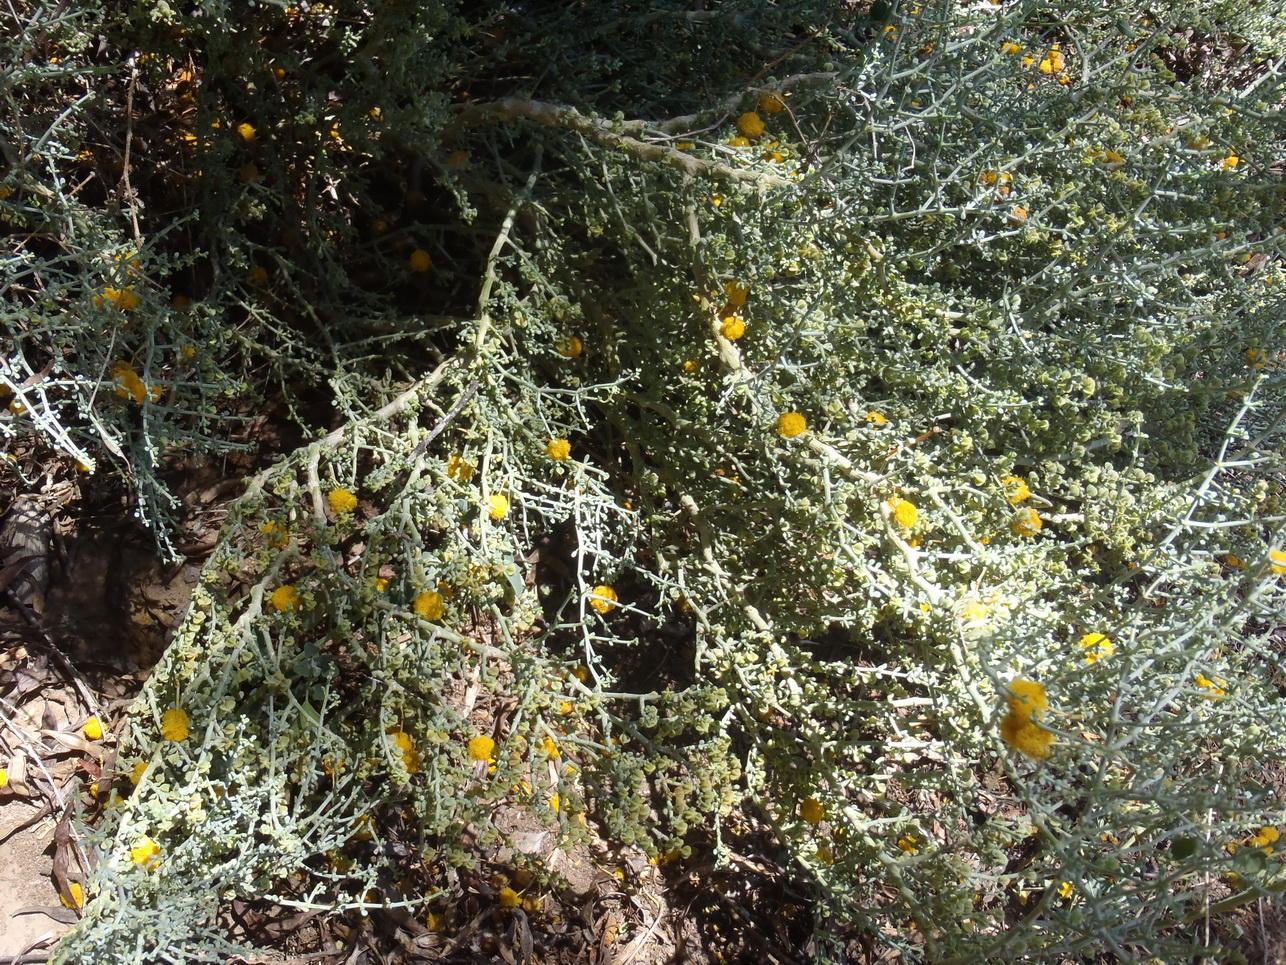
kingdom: Plantae
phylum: Tracheophyta
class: Magnoliopsida
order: Zygophyllales
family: Zygophyllaceae
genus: Tetraena
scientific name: Tetraena retrofracta
